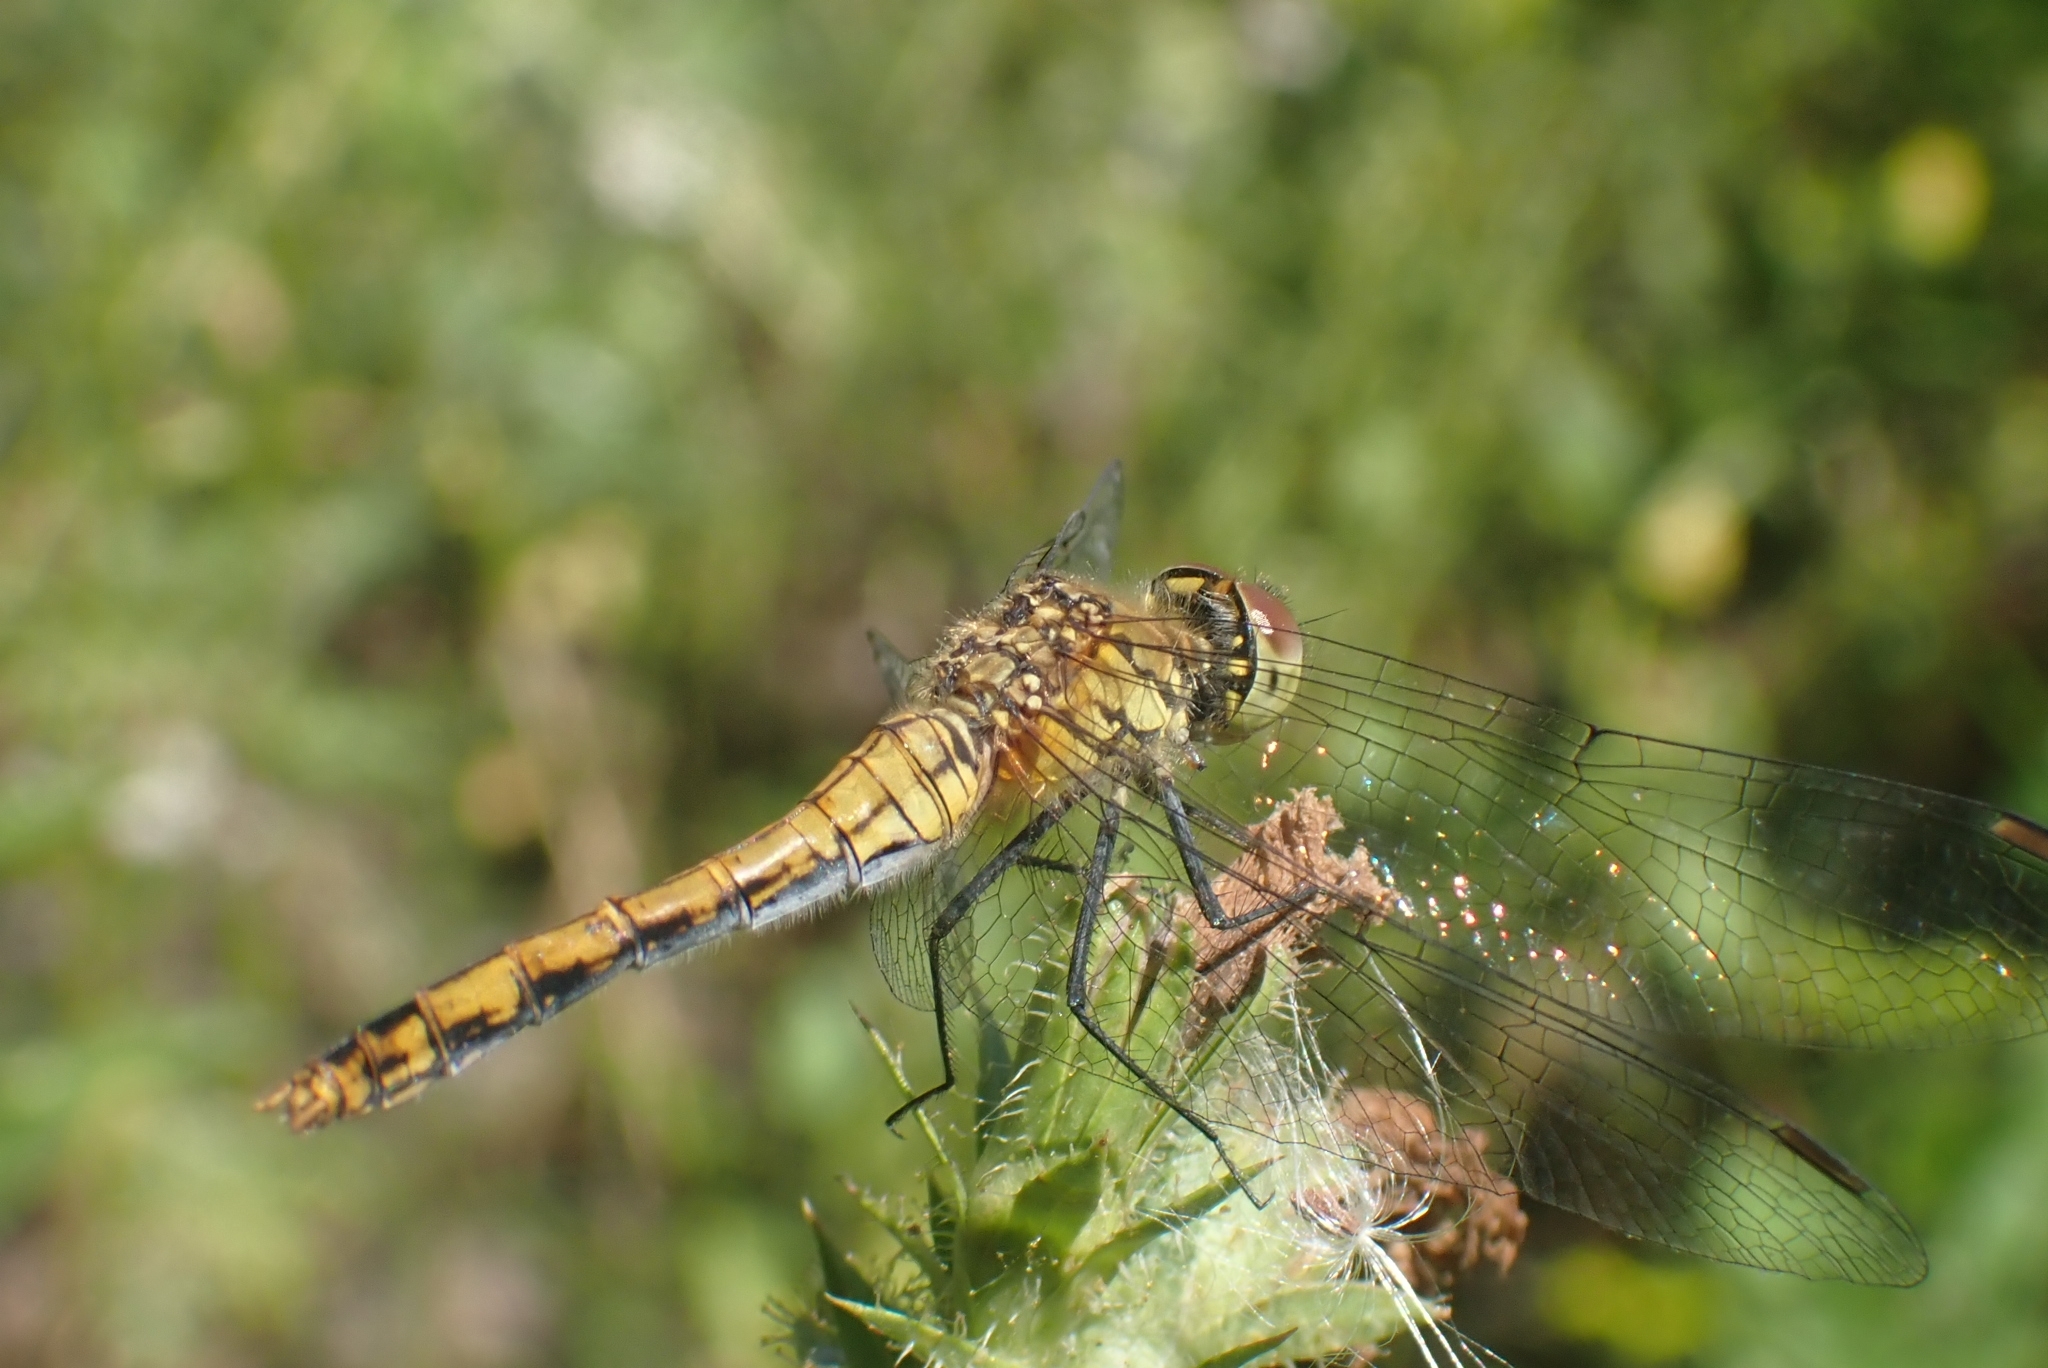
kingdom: Animalia
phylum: Arthropoda
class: Insecta
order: Odonata
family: Libellulidae
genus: Sympetrum
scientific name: Sympetrum sanguineum
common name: Ruddy darter
